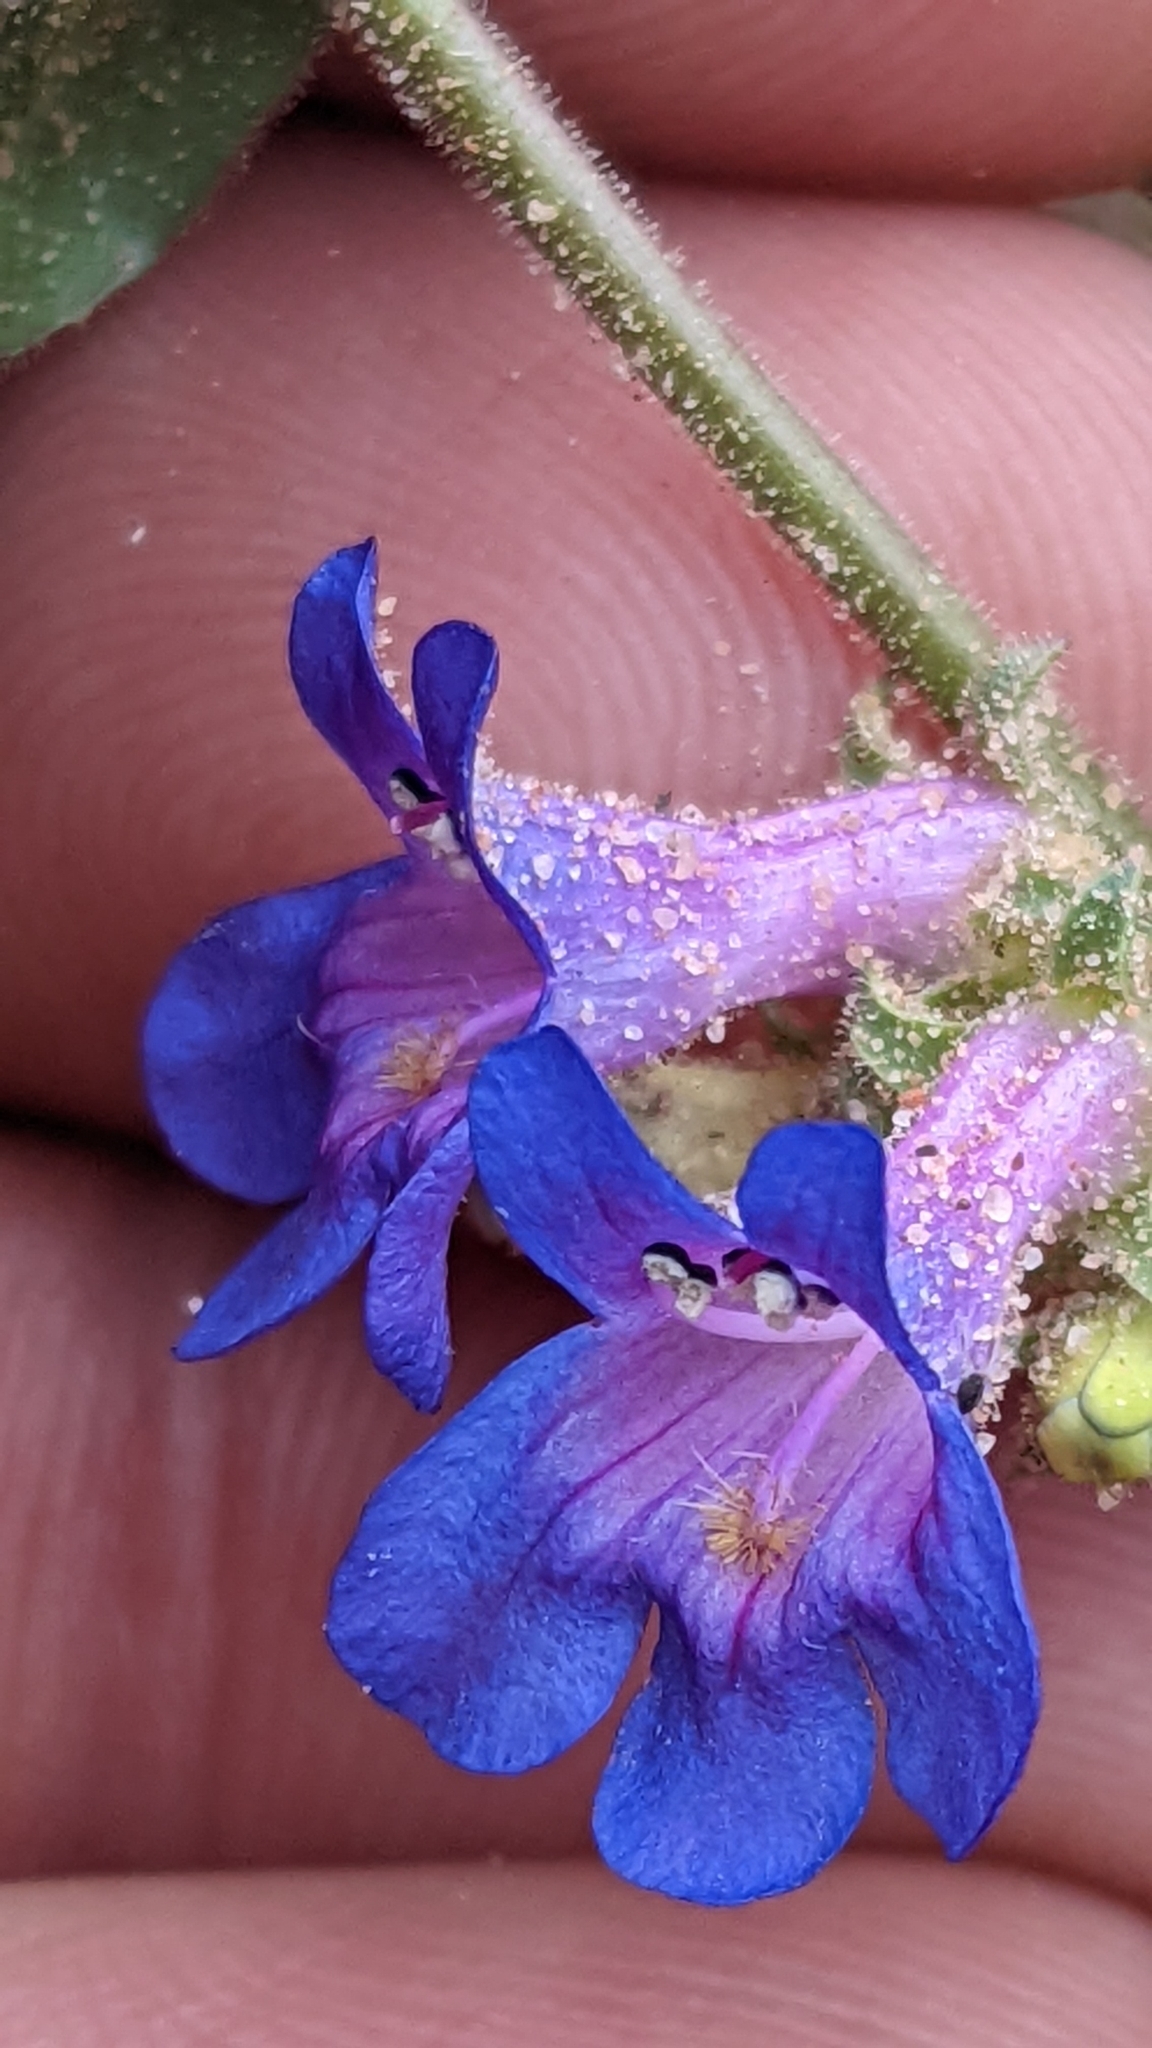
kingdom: Plantae
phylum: Tracheophyta
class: Magnoliopsida
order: Lamiales
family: Plantaginaceae
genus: Penstemon
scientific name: Penstemon humilis
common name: Low penstemon
